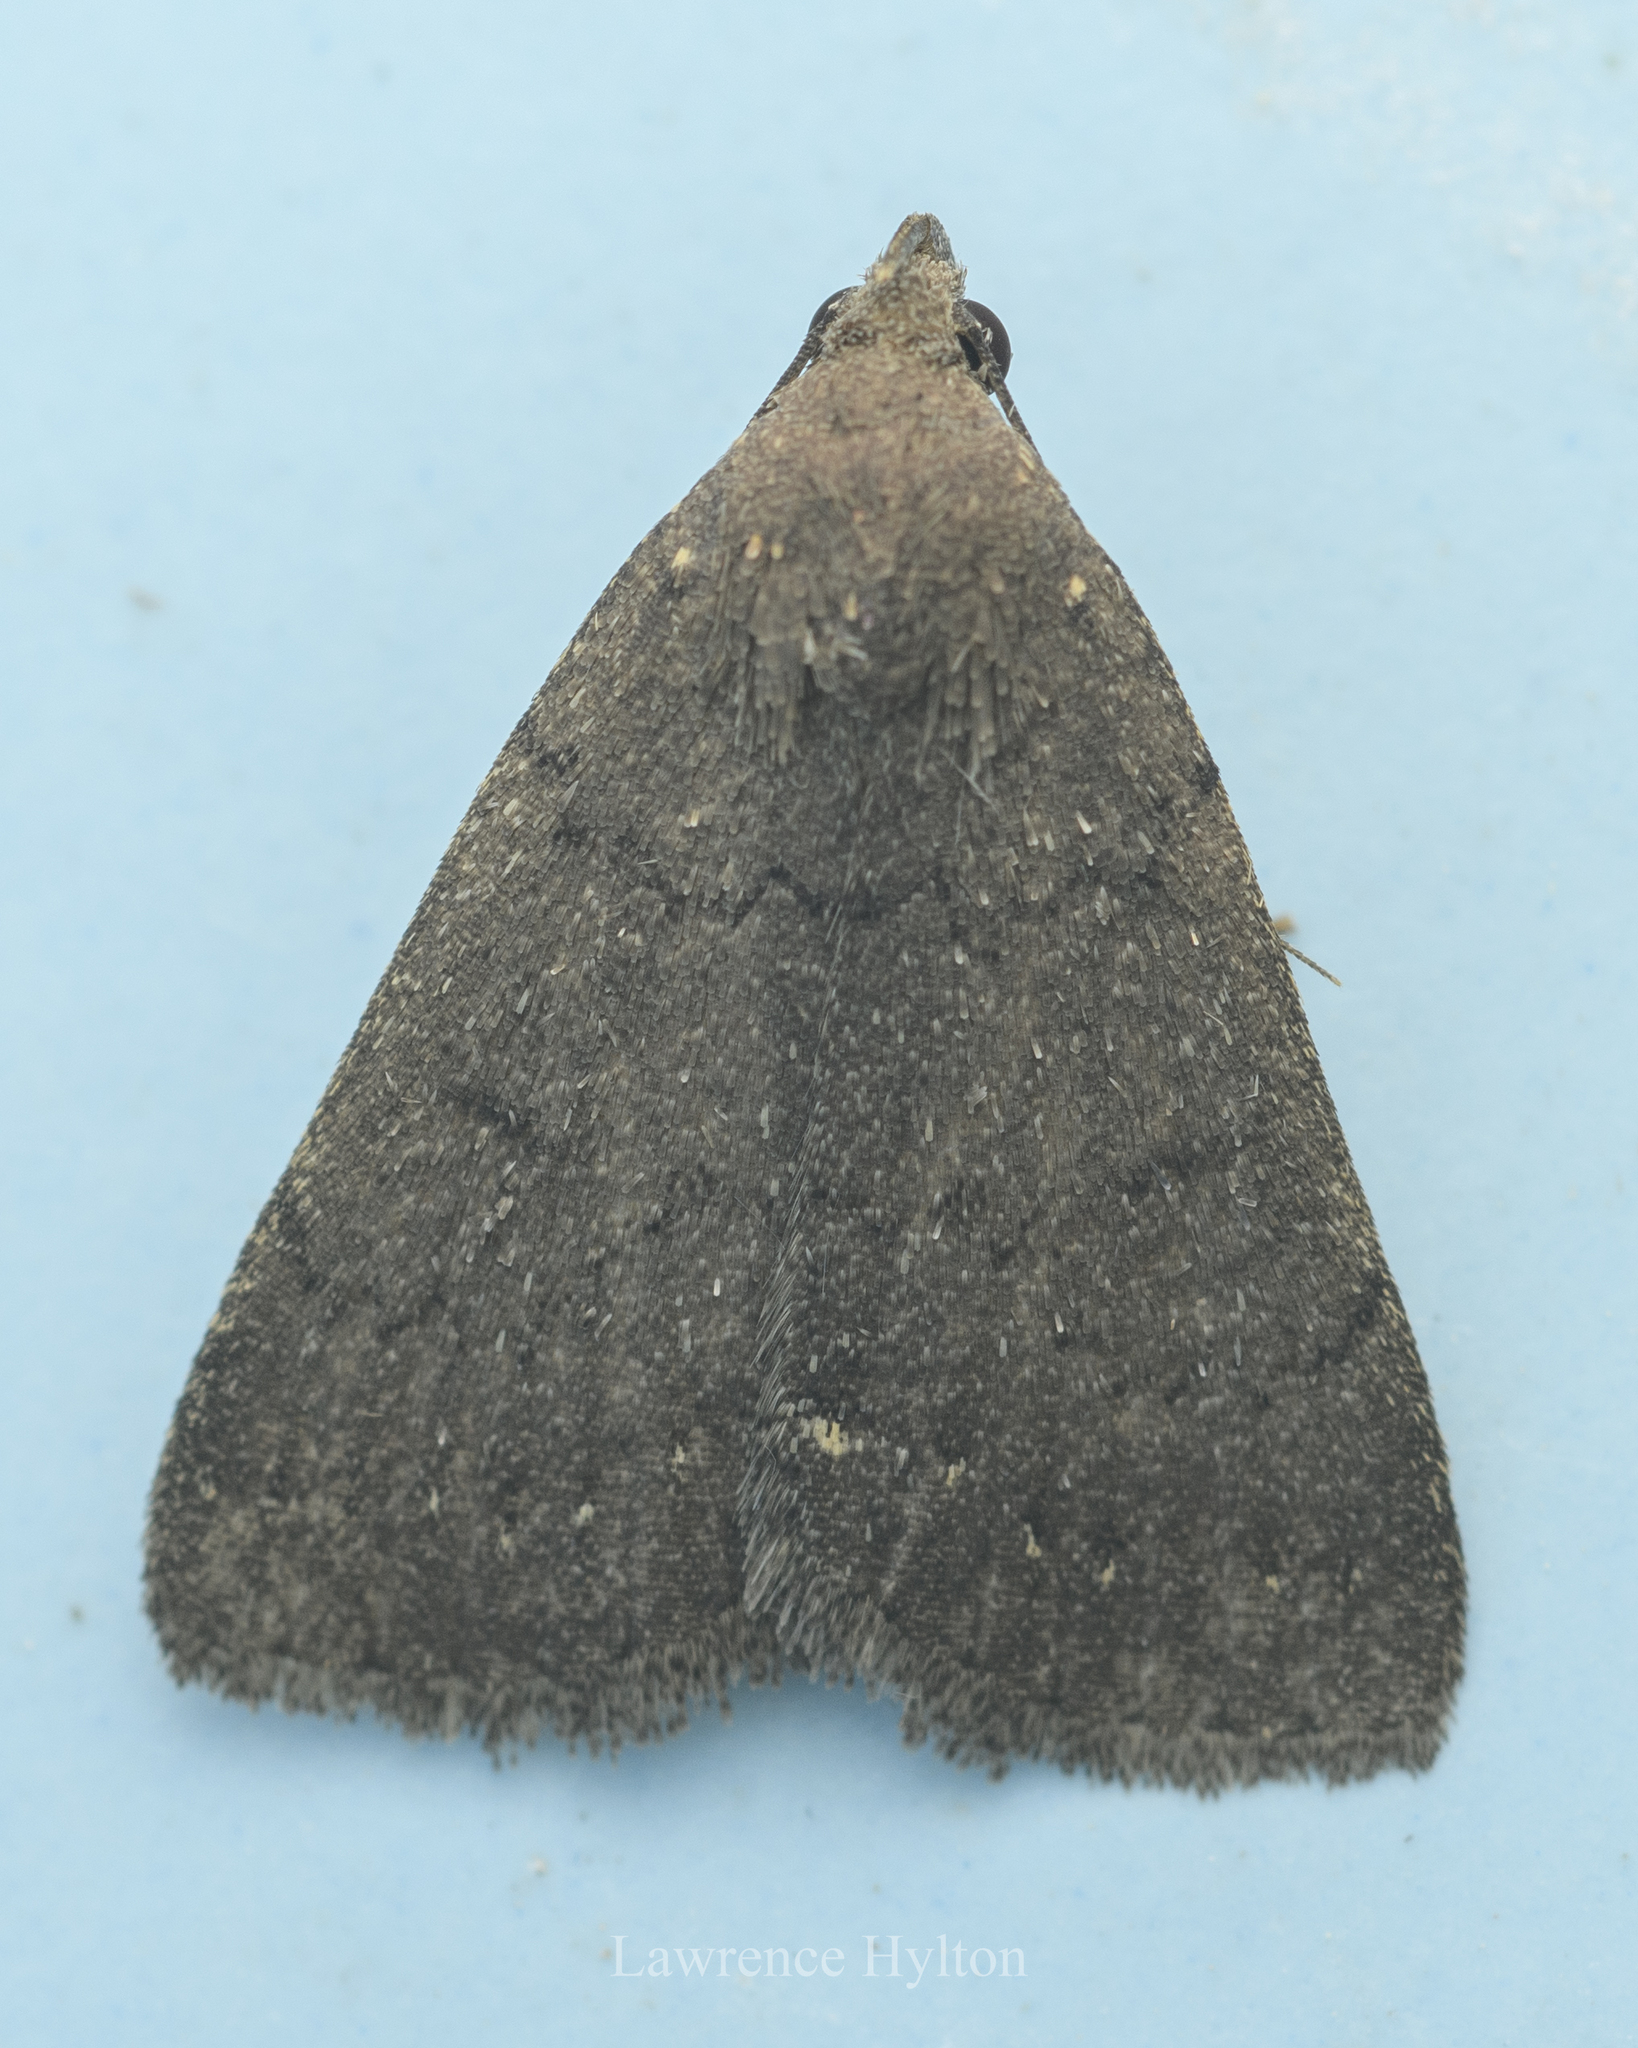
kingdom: Animalia
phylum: Arthropoda
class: Insecta
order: Lepidoptera
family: Erebidae
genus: Nodaria
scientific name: Nodaria externalis
